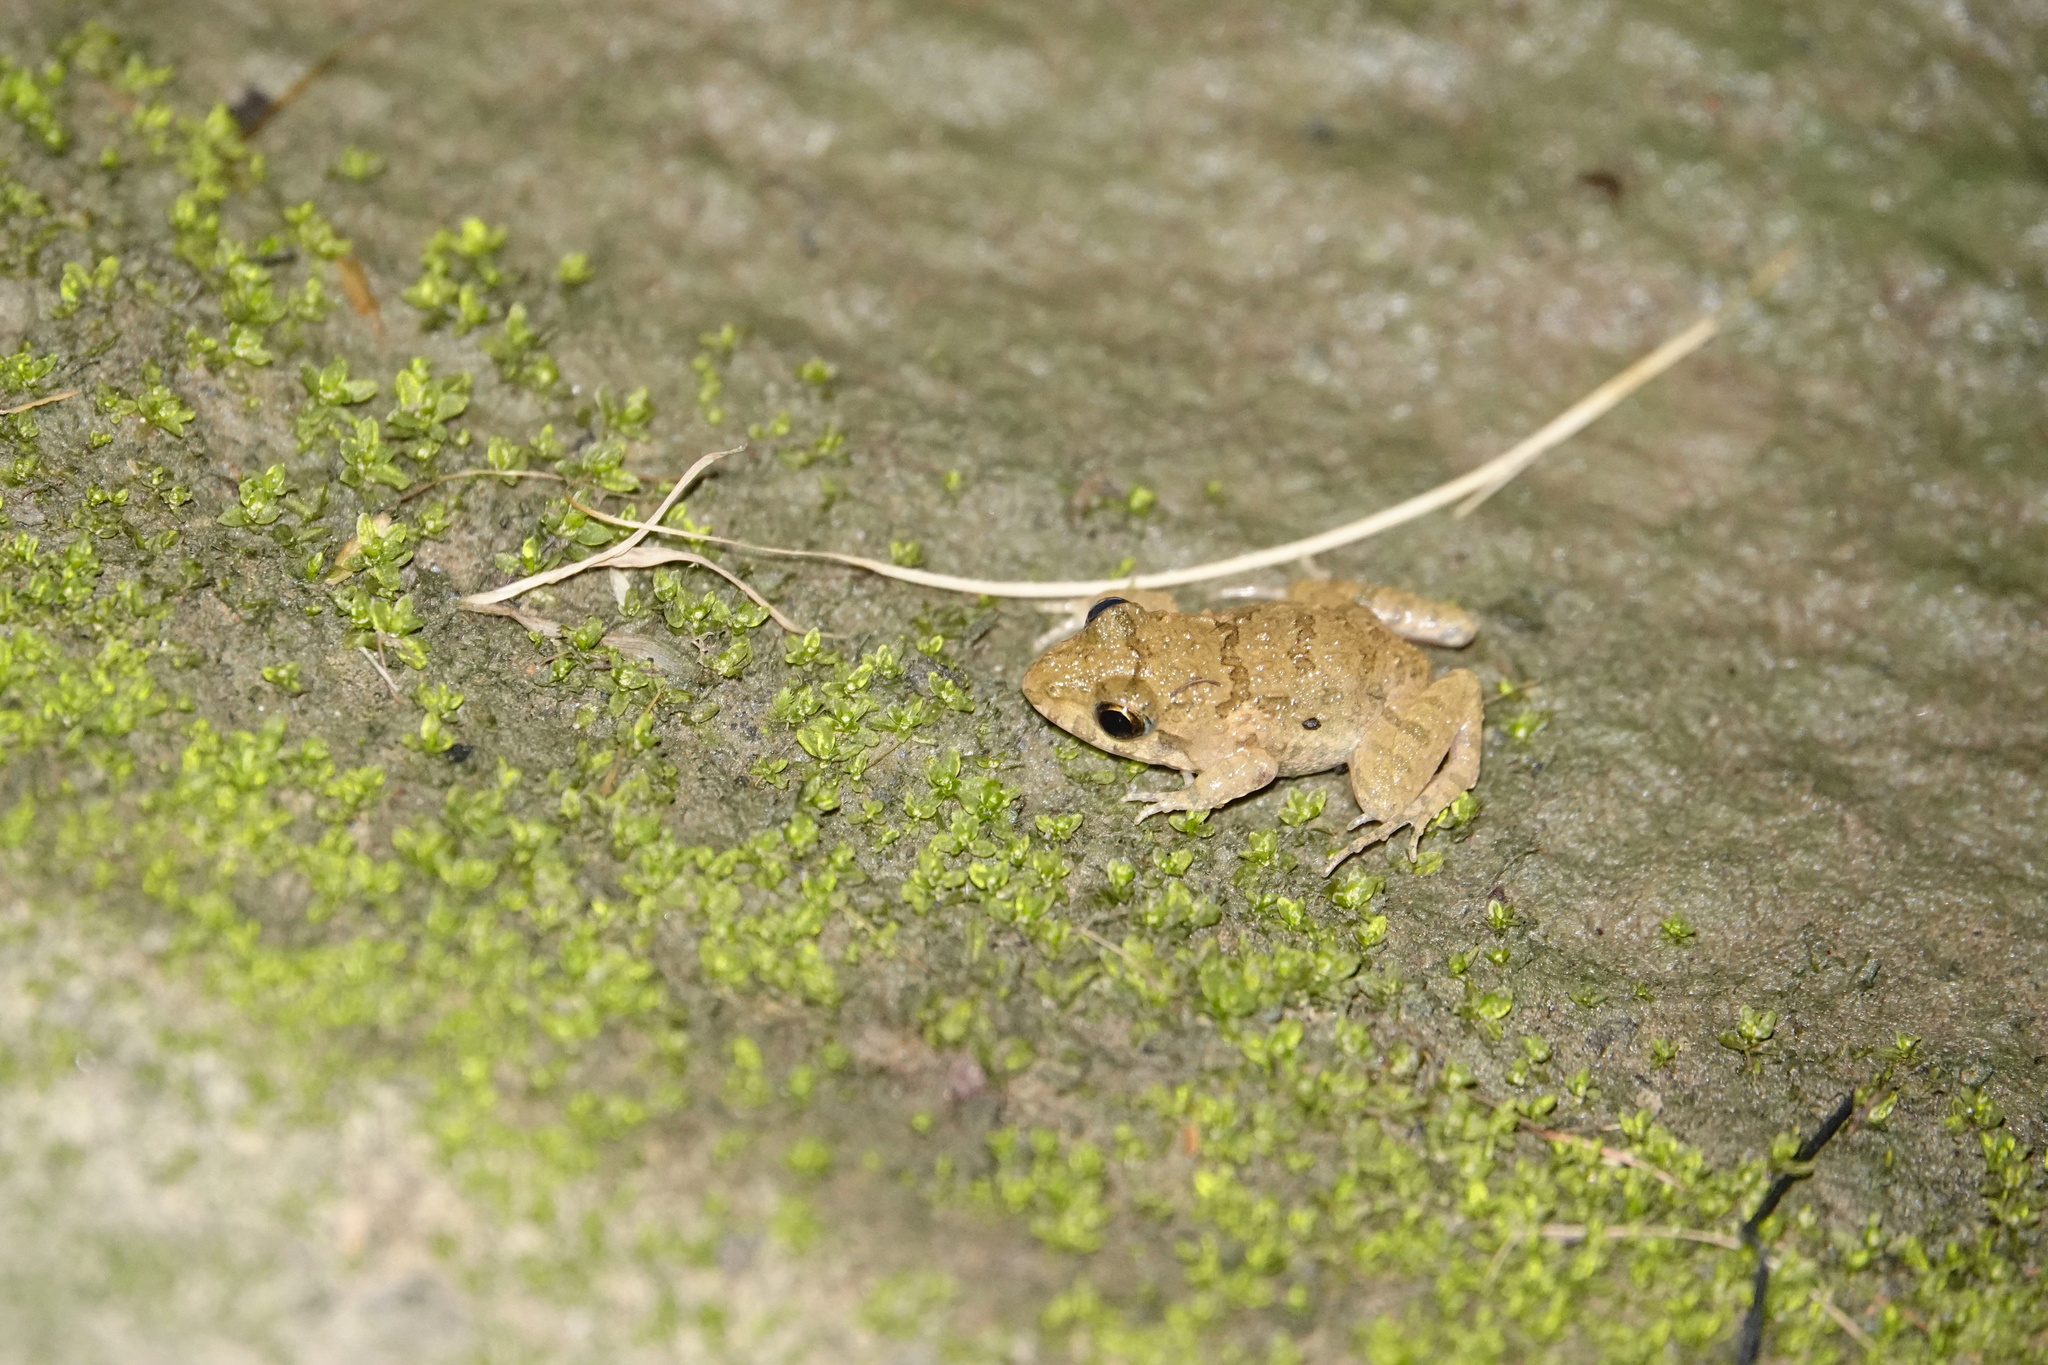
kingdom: Animalia
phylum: Chordata
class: Amphibia
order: Anura
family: Dicroglossidae
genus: Fejervarya
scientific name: Fejervarya limnocharis
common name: Asian grass frog/common pond frog/field frog/grass frog/indian rice frog
